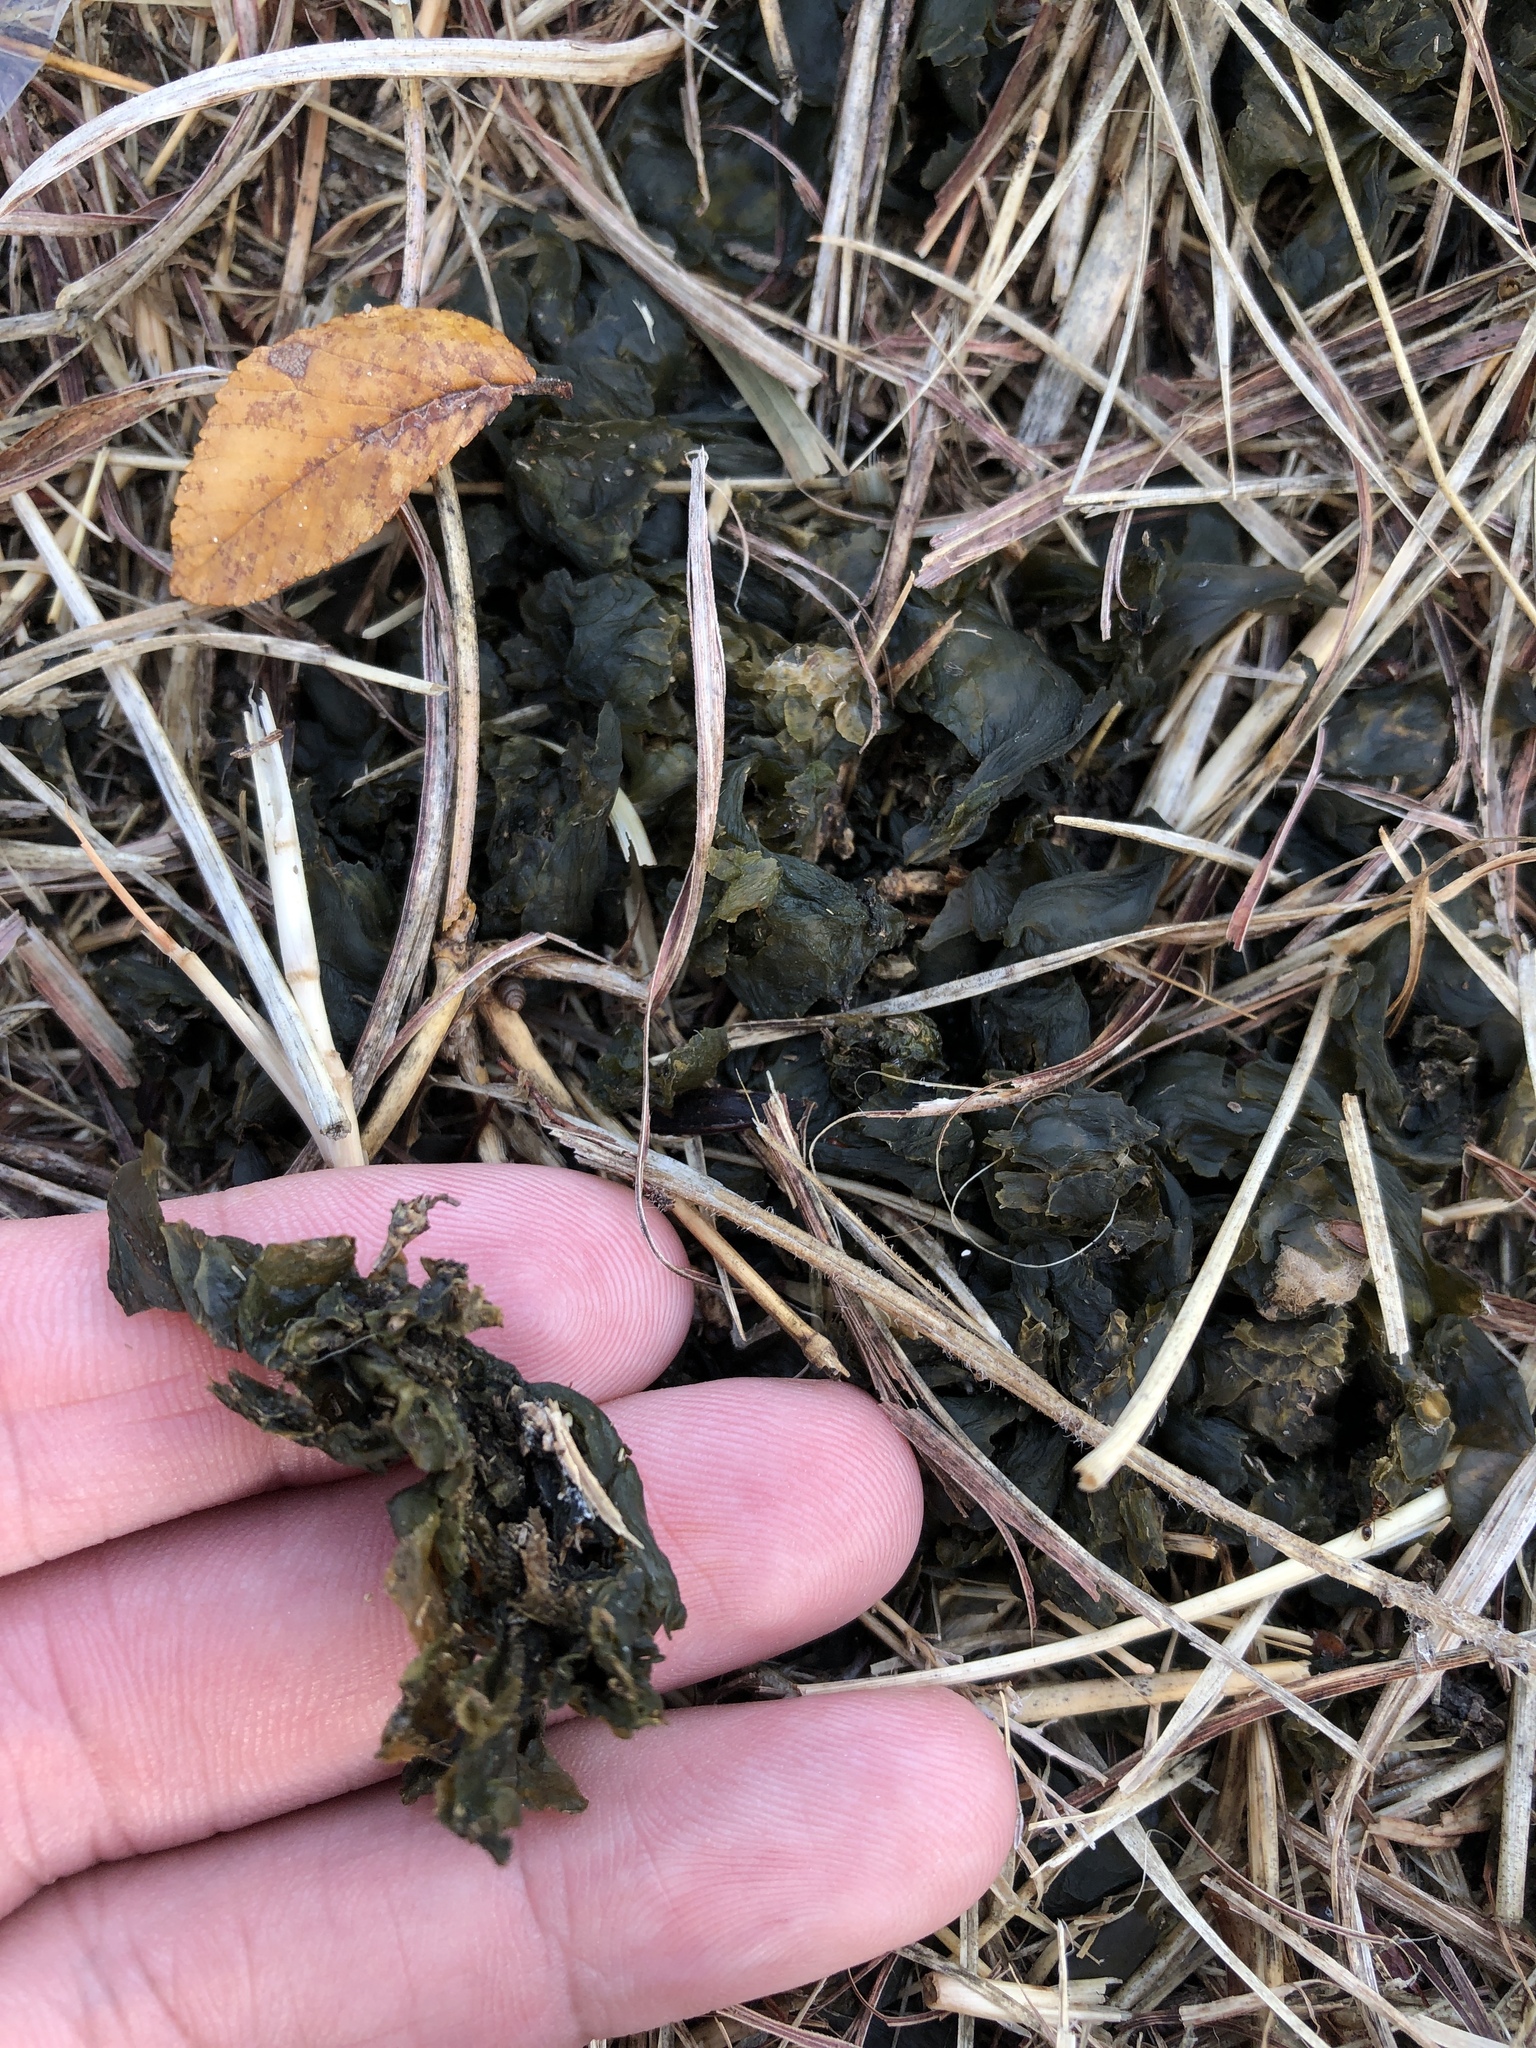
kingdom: Bacteria
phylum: Cyanobacteria
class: Cyanobacteriia
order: Cyanobacteriales
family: Nostocaceae
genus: Nostoc
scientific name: Nostoc commune
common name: Star jelly
